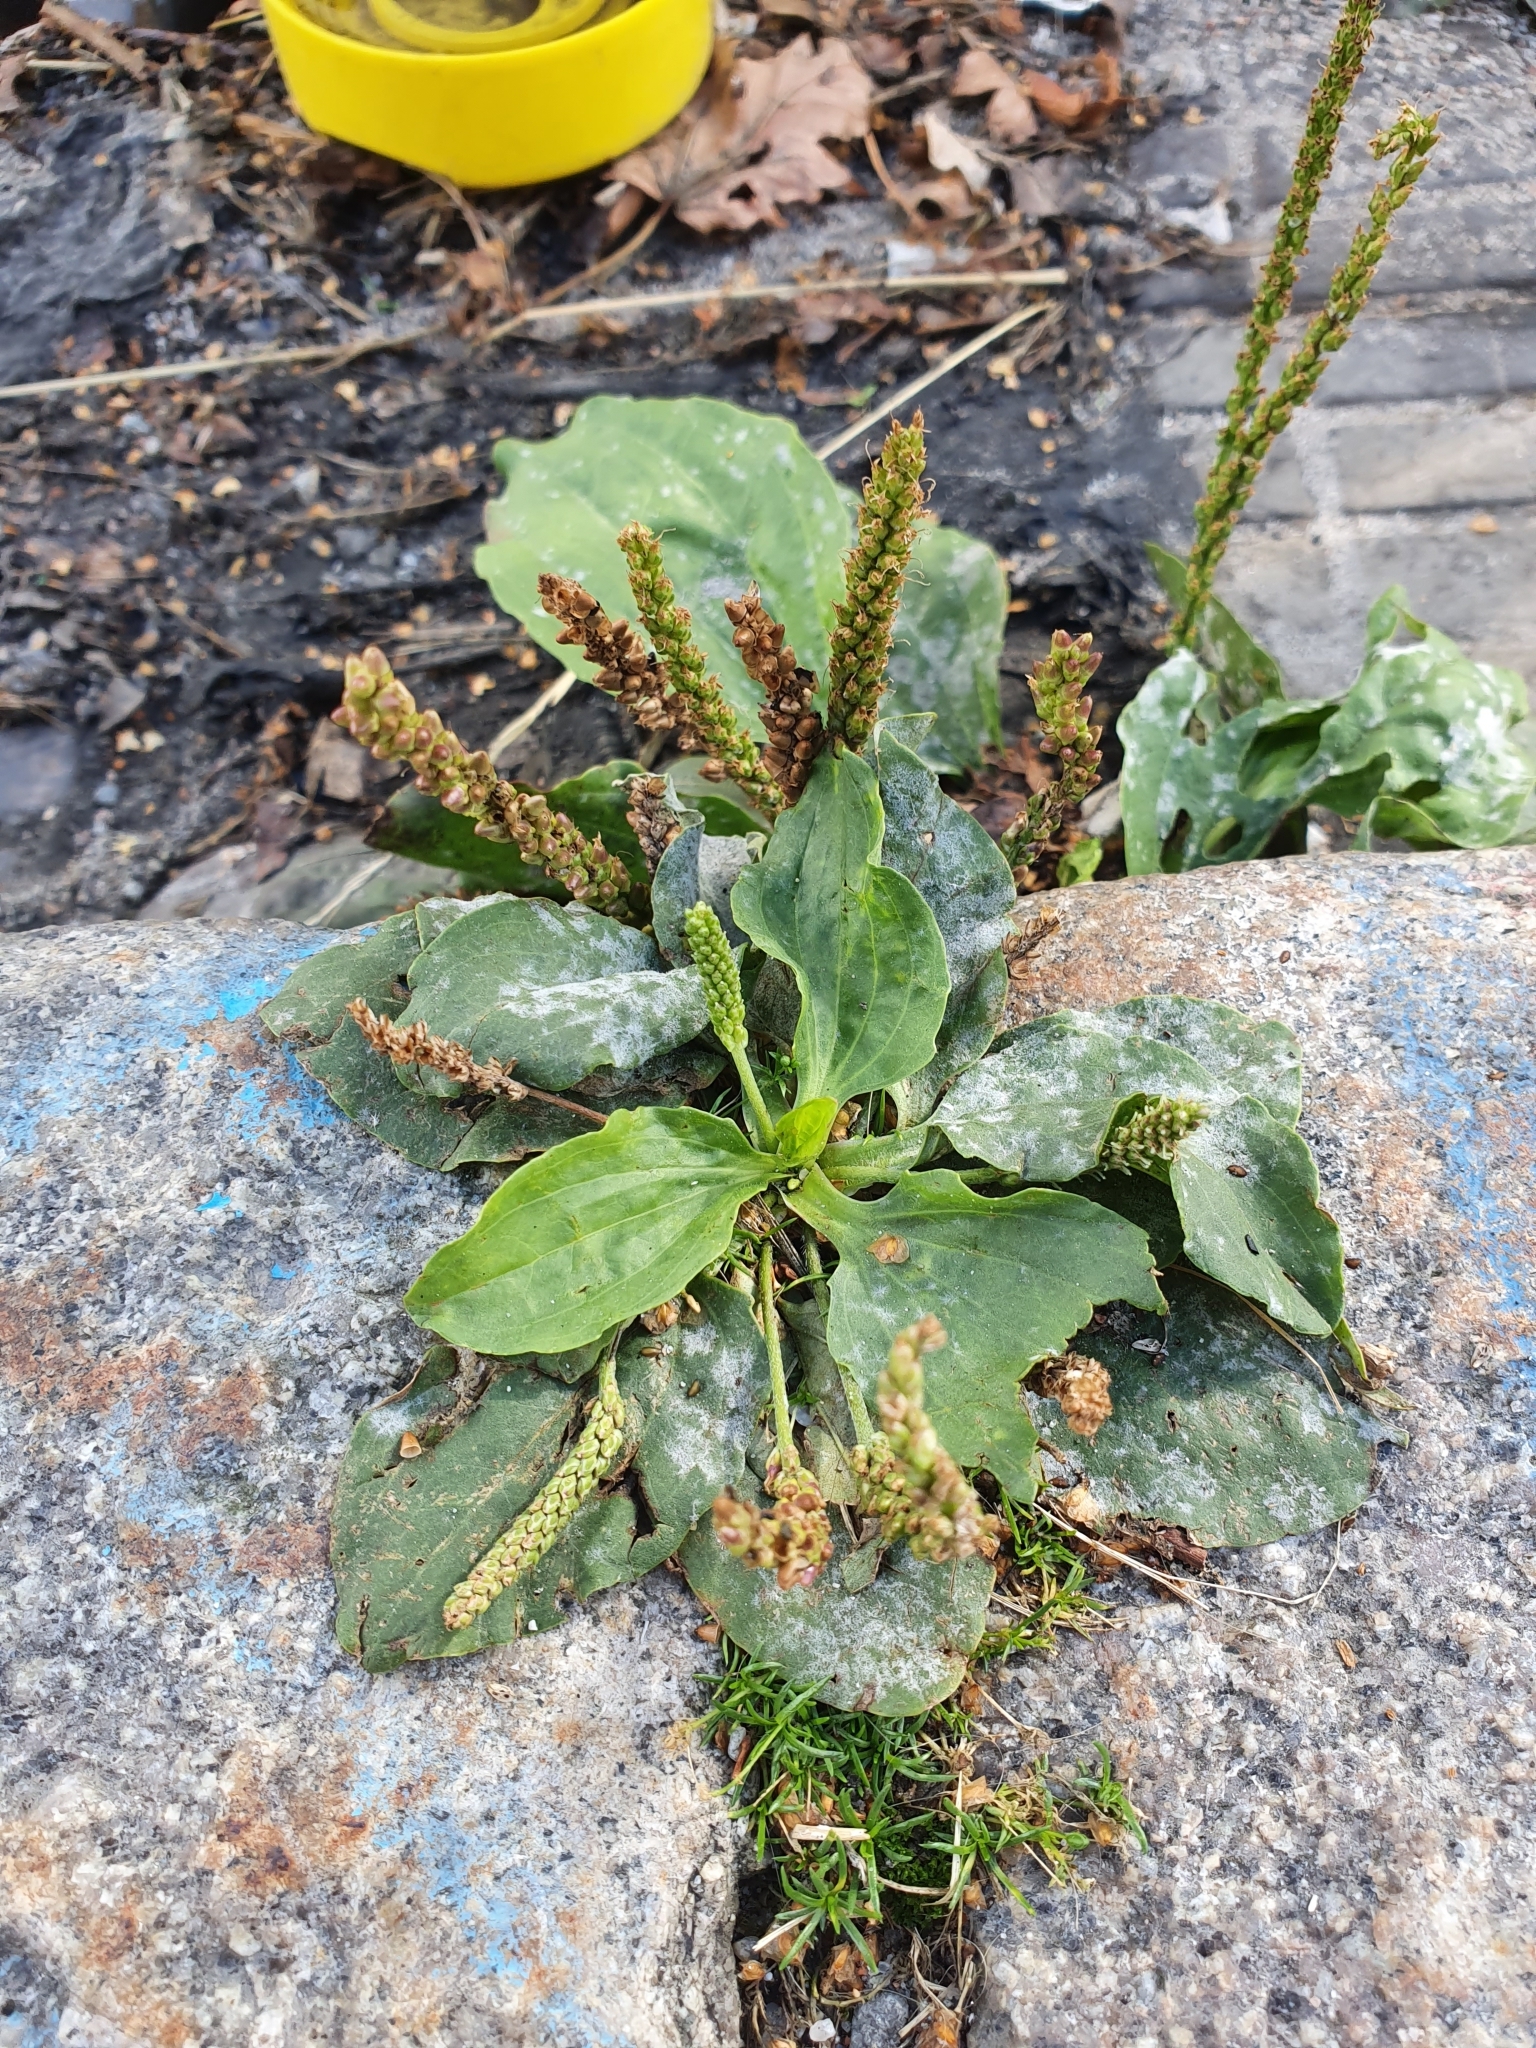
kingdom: Plantae
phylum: Tracheophyta
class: Magnoliopsida
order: Lamiales
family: Plantaginaceae
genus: Plantago
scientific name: Plantago major
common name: Common plantain
